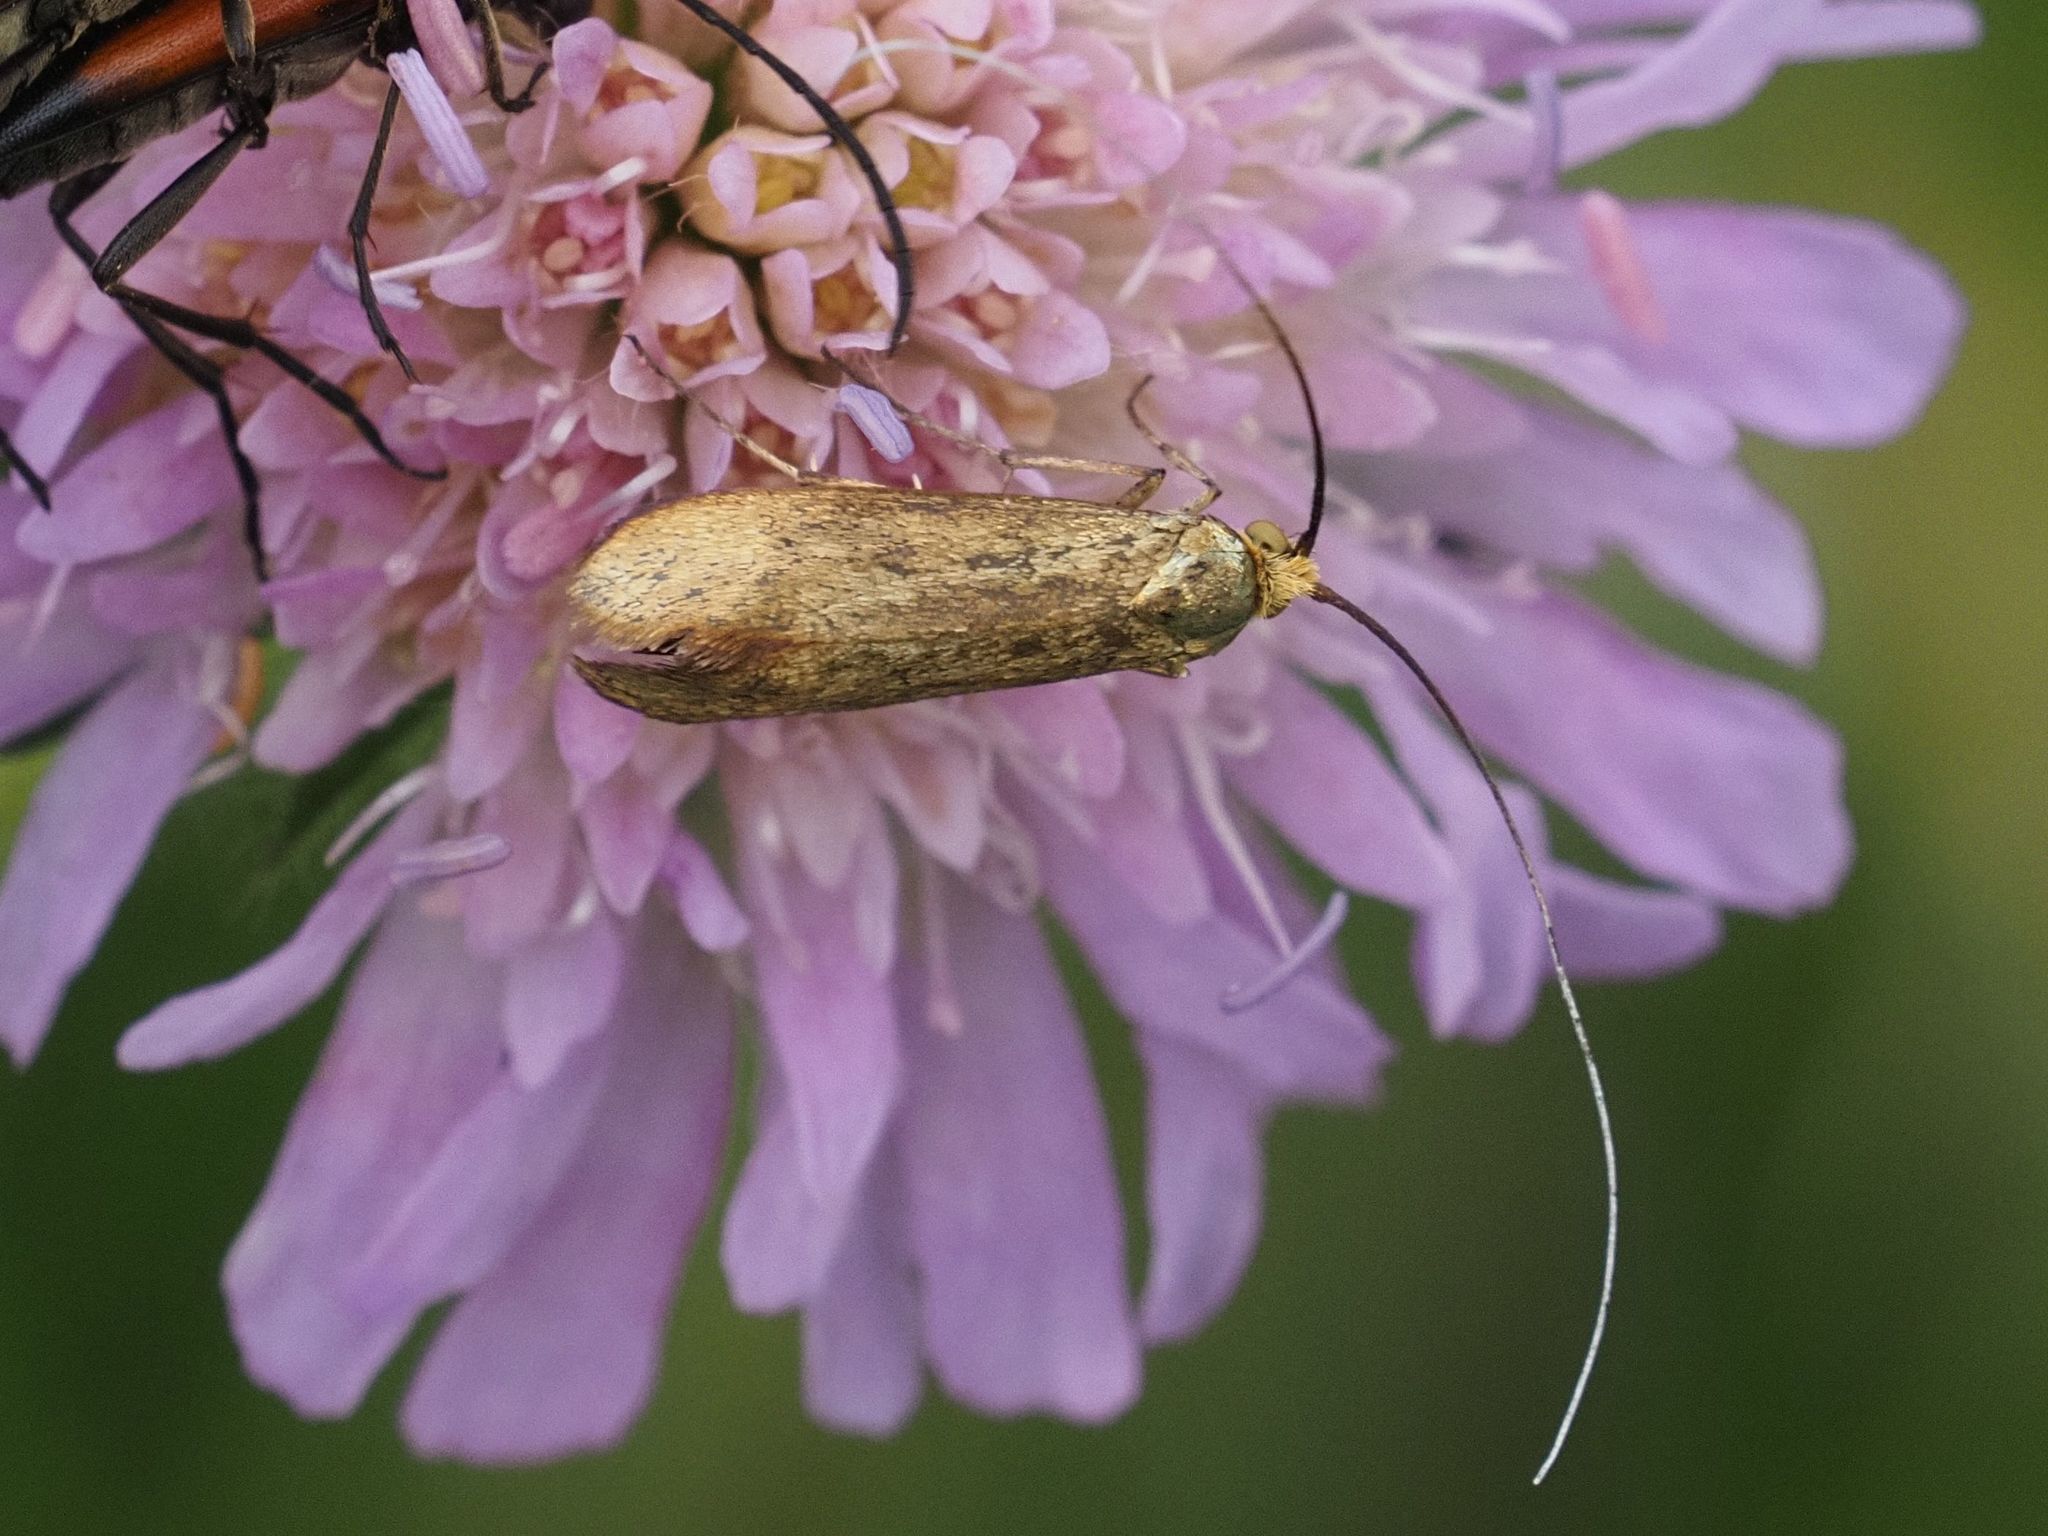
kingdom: Animalia
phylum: Arthropoda
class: Insecta
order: Lepidoptera
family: Adelidae
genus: Nemophora
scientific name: Nemophora metallica
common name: Brassy long-horn
